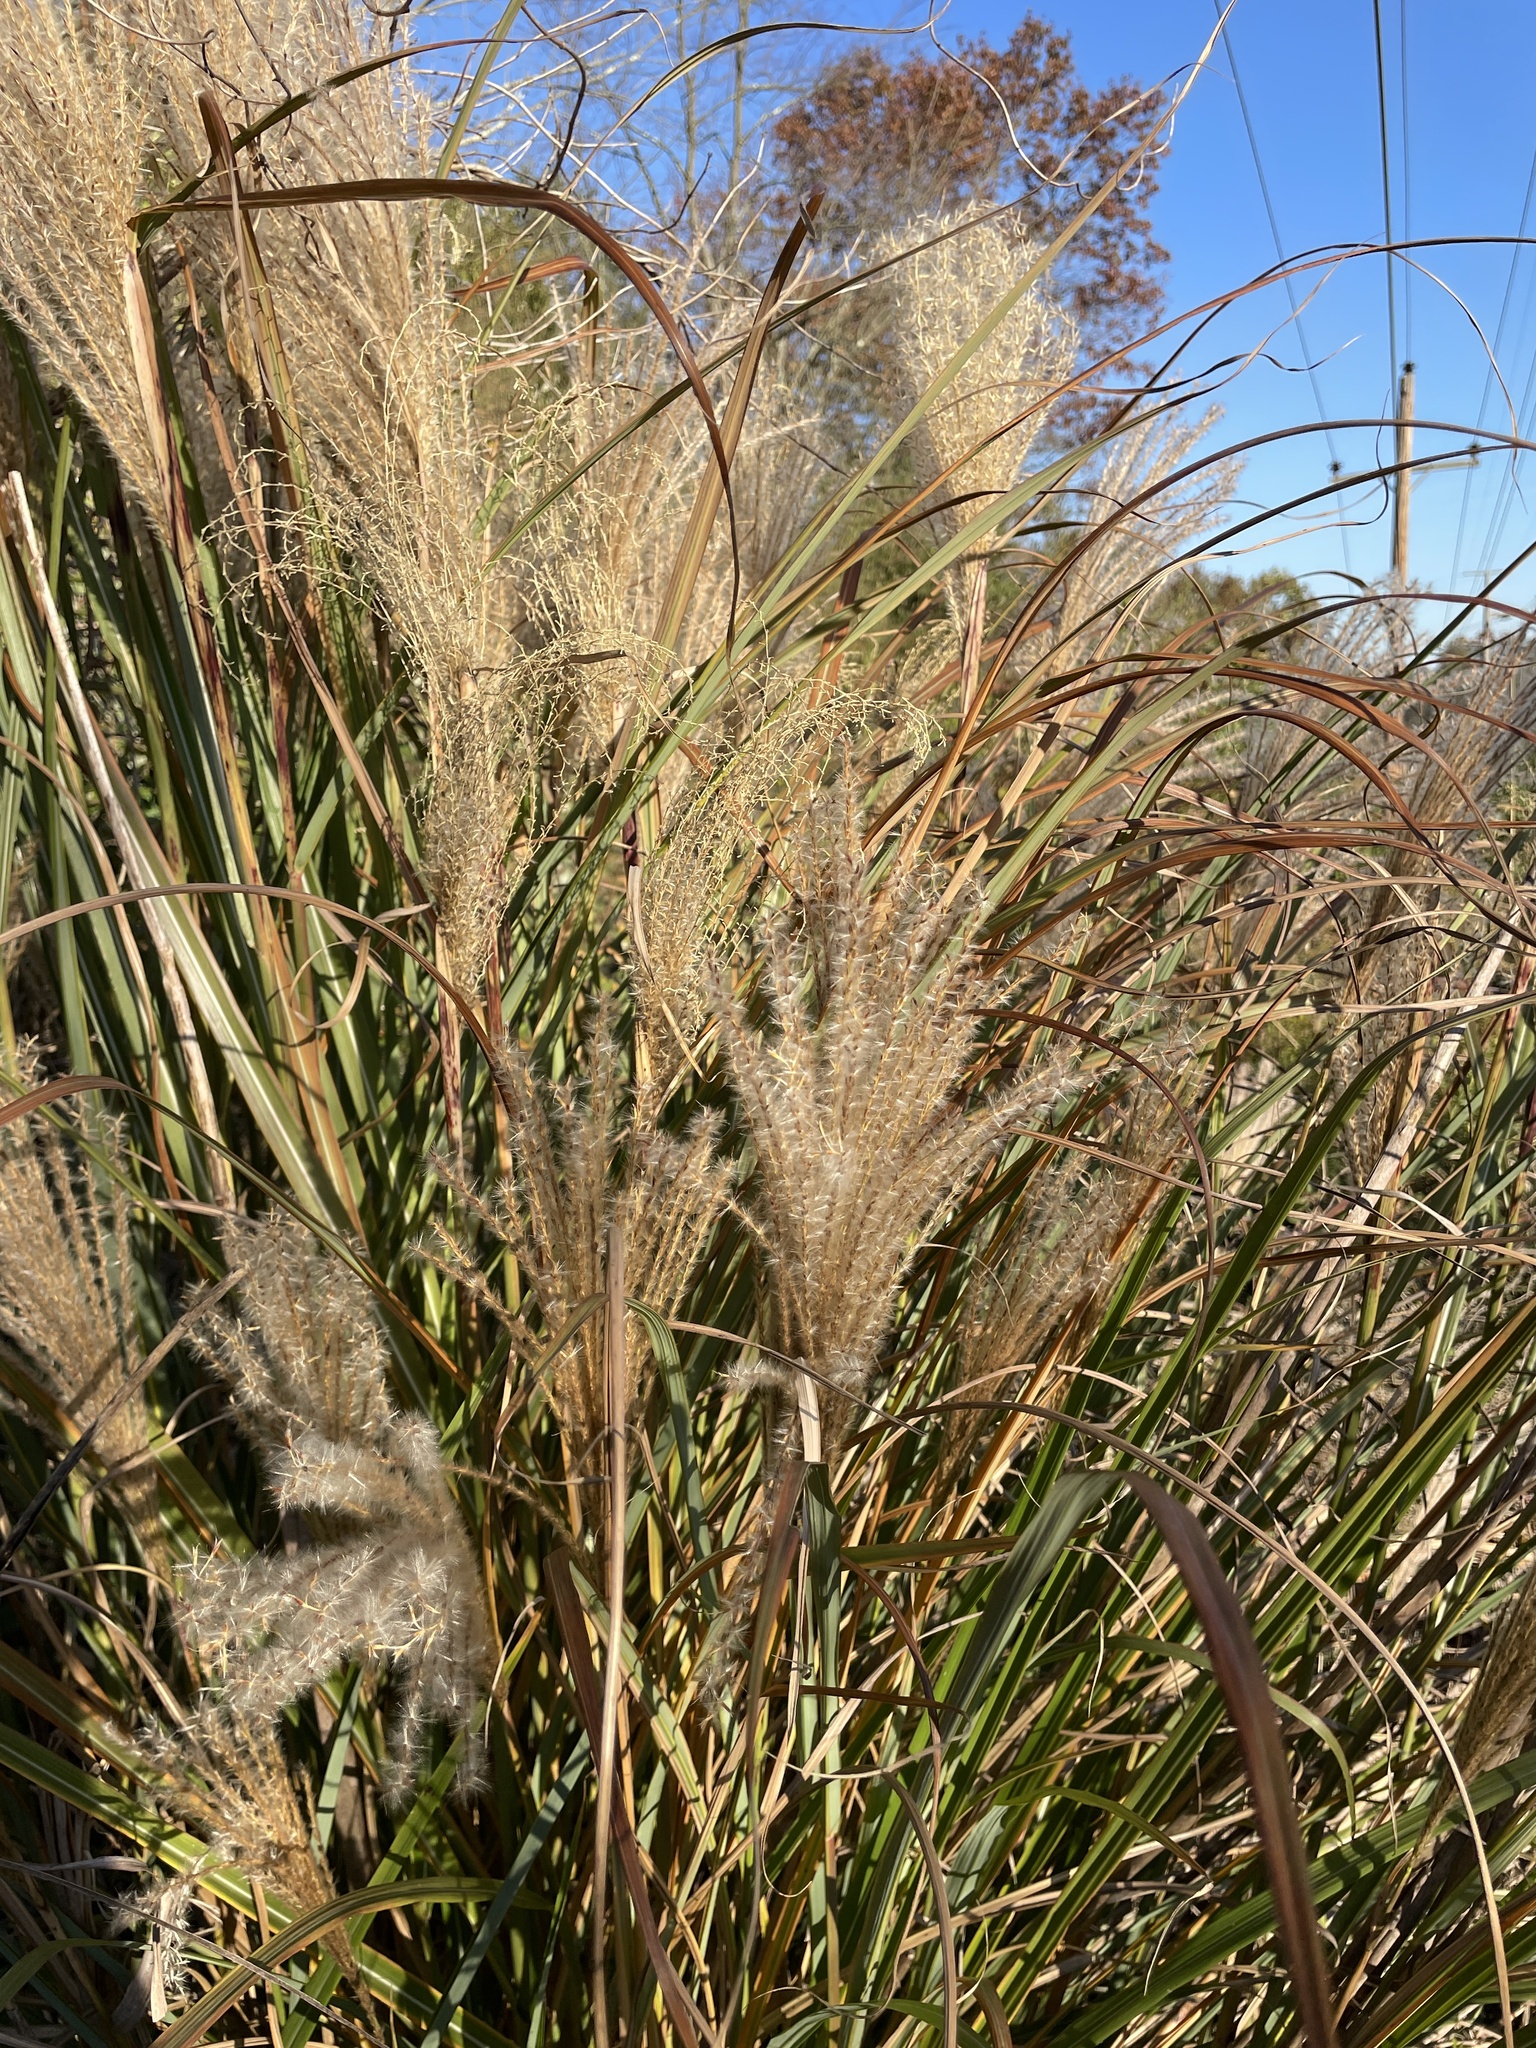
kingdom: Plantae
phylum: Tracheophyta
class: Liliopsida
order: Poales
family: Poaceae
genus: Miscanthus
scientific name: Miscanthus sinensis
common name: Chinese silvergrass
